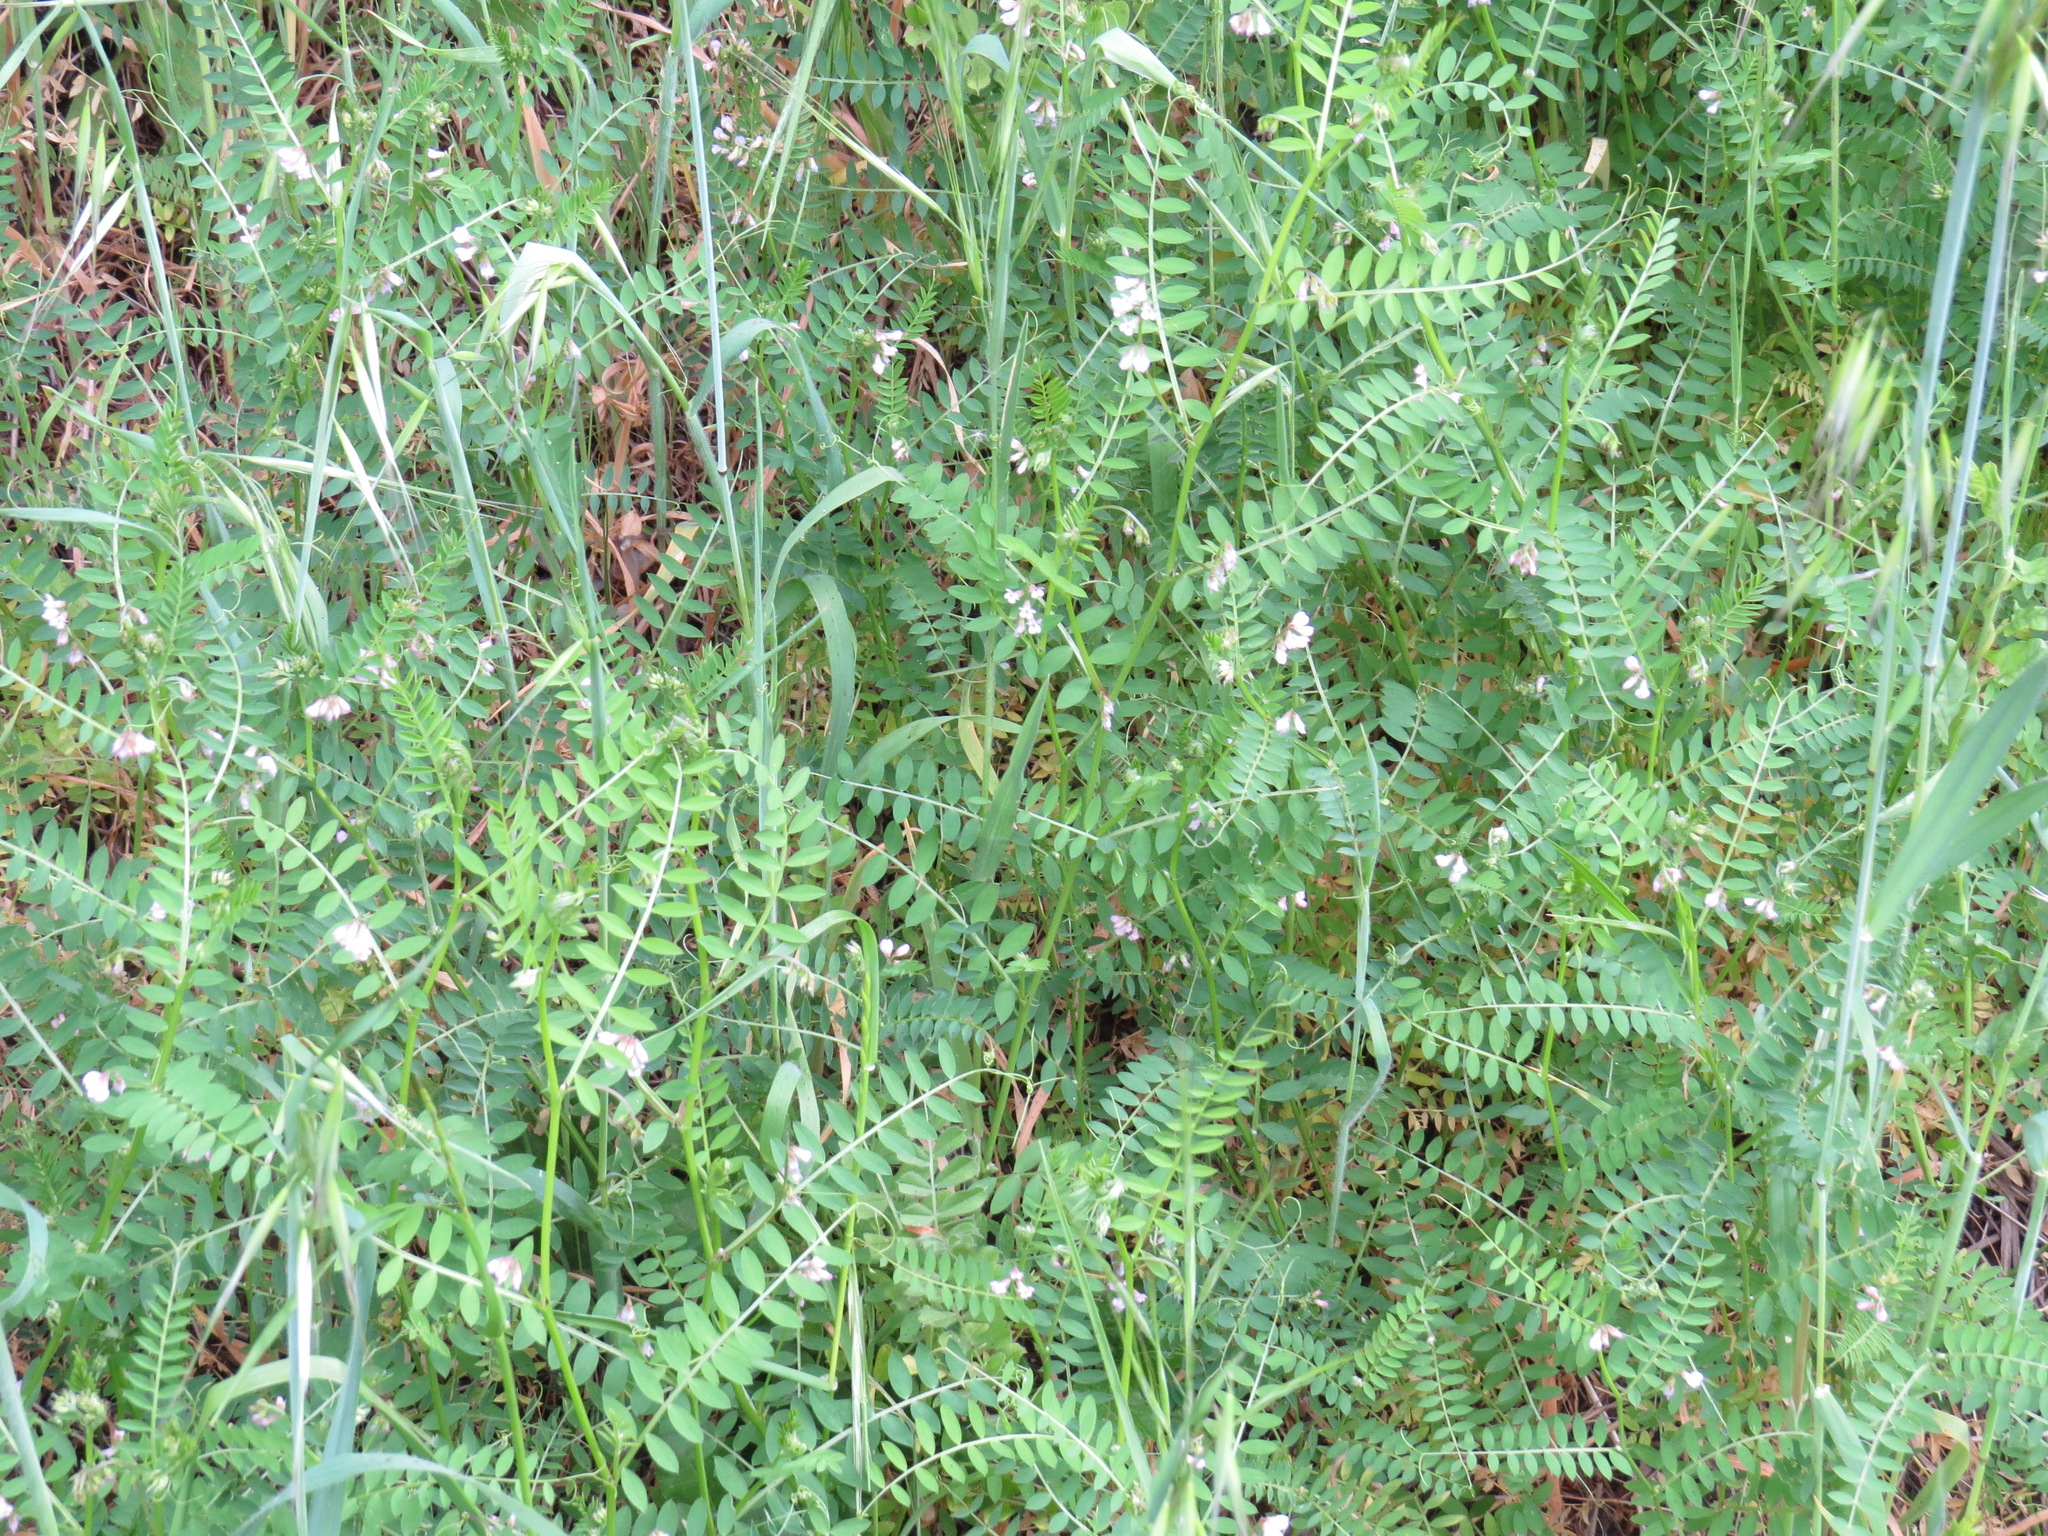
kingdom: Plantae
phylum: Tracheophyta
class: Magnoliopsida
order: Fabales
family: Fabaceae
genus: Vicia
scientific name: Vicia disperma
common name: European vetch
